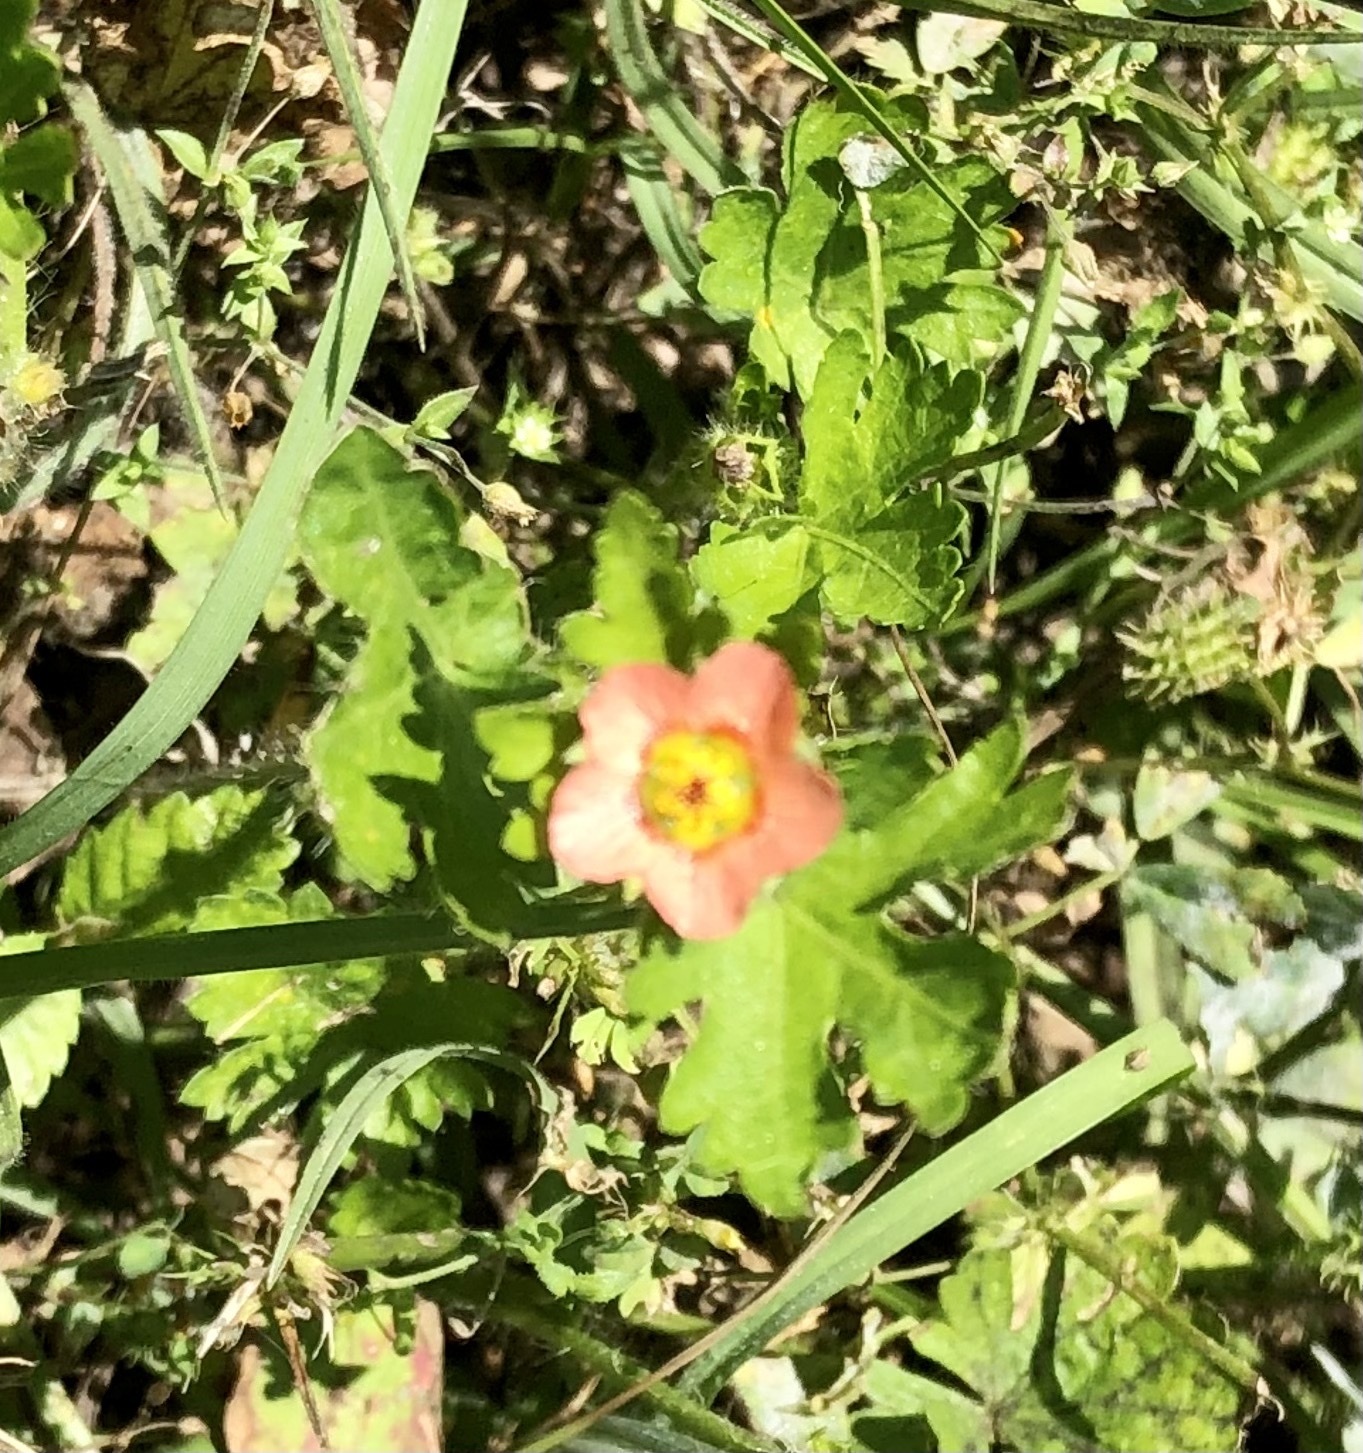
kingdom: Plantae
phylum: Tracheophyta
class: Magnoliopsida
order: Malvales
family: Malvaceae
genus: Modiola
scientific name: Modiola caroliniana
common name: Carolina bristlemallow
